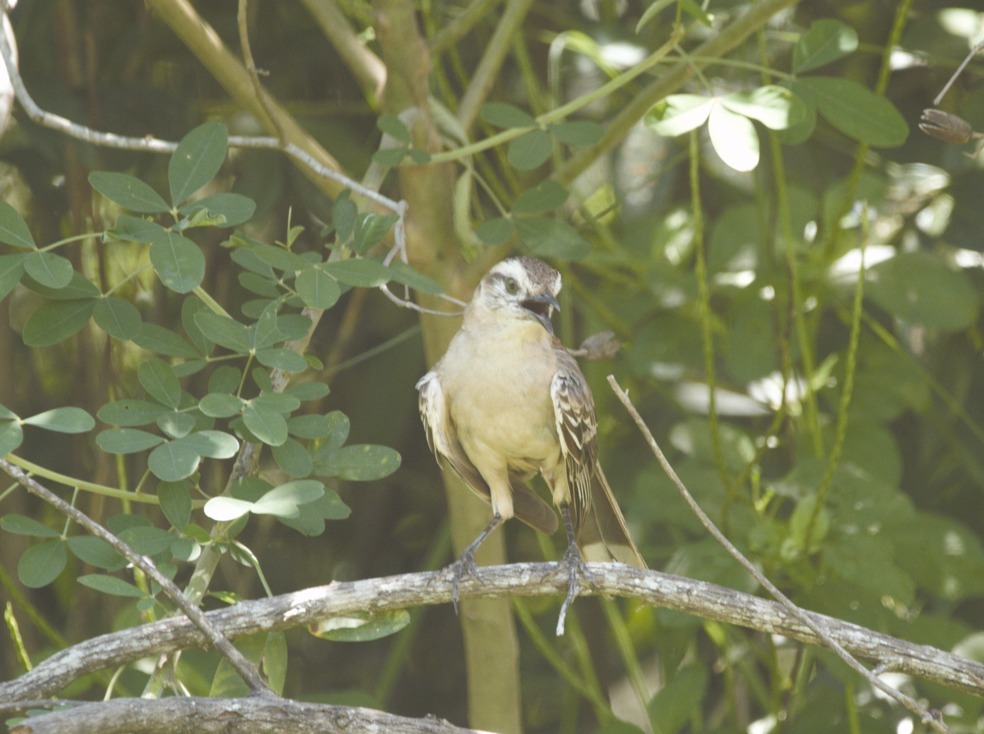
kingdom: Animalia
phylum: Chordata
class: Aves
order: Passeriformes
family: Mimidae
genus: Mimus
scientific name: Mimus saturninus
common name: Chalk-browed mockingbird
